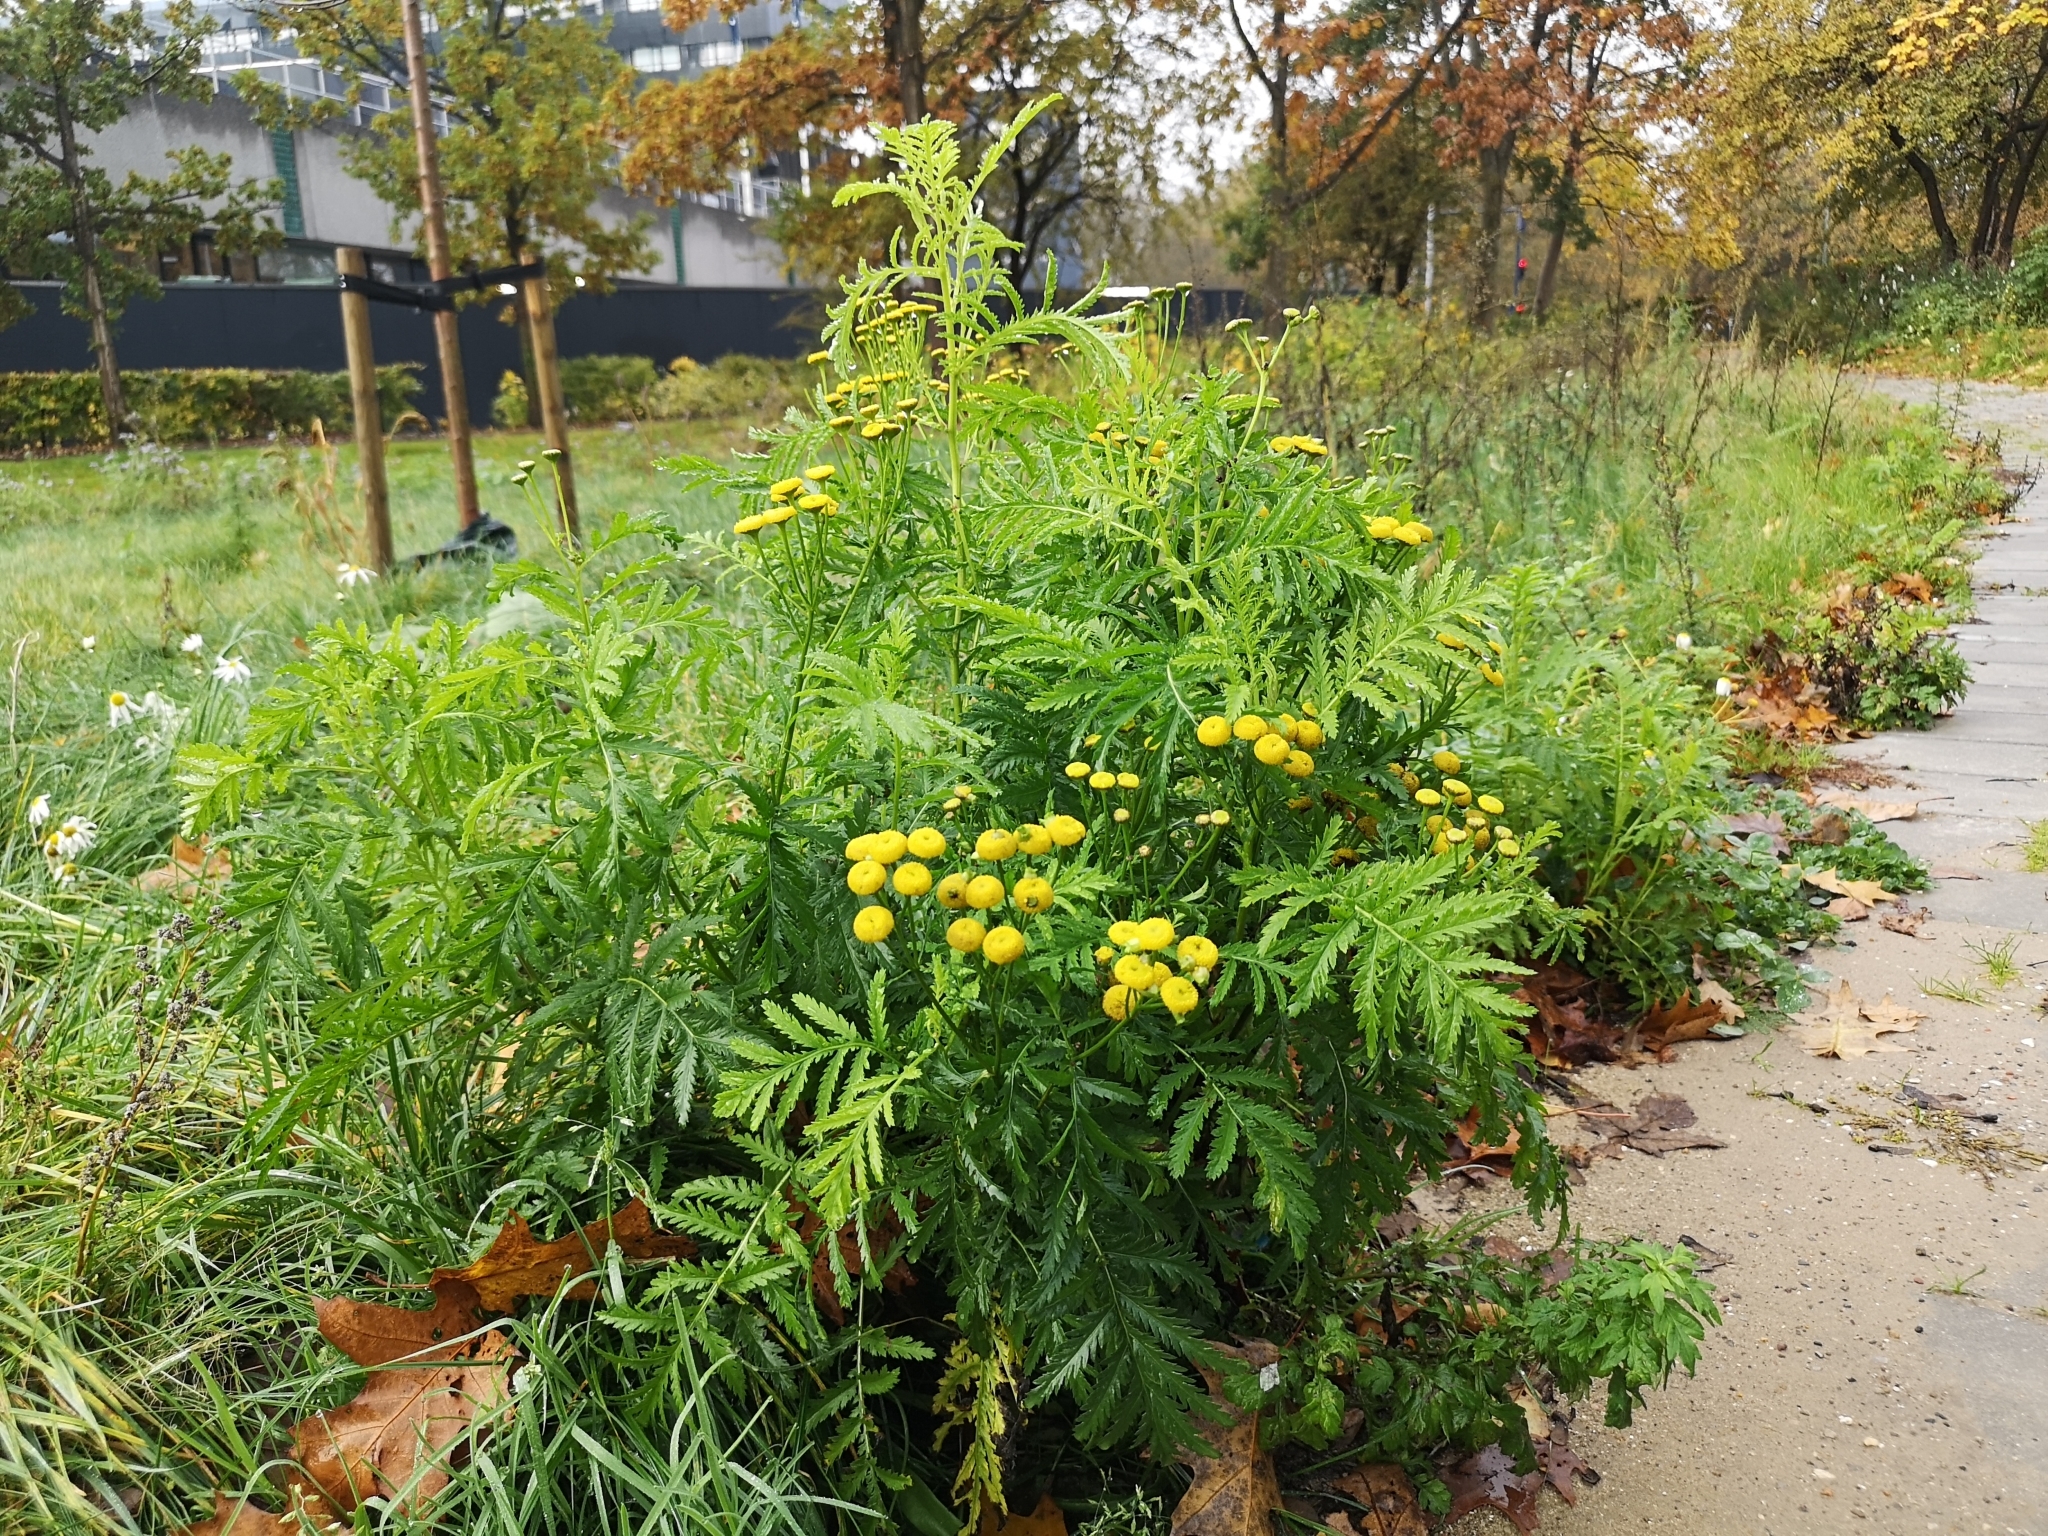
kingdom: Plantae
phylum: Tracheophyta
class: Magnoliopsida
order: Asterales
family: Asteraceae
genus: Tanacetum
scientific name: Tanacetum vulgare
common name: Common tansy
